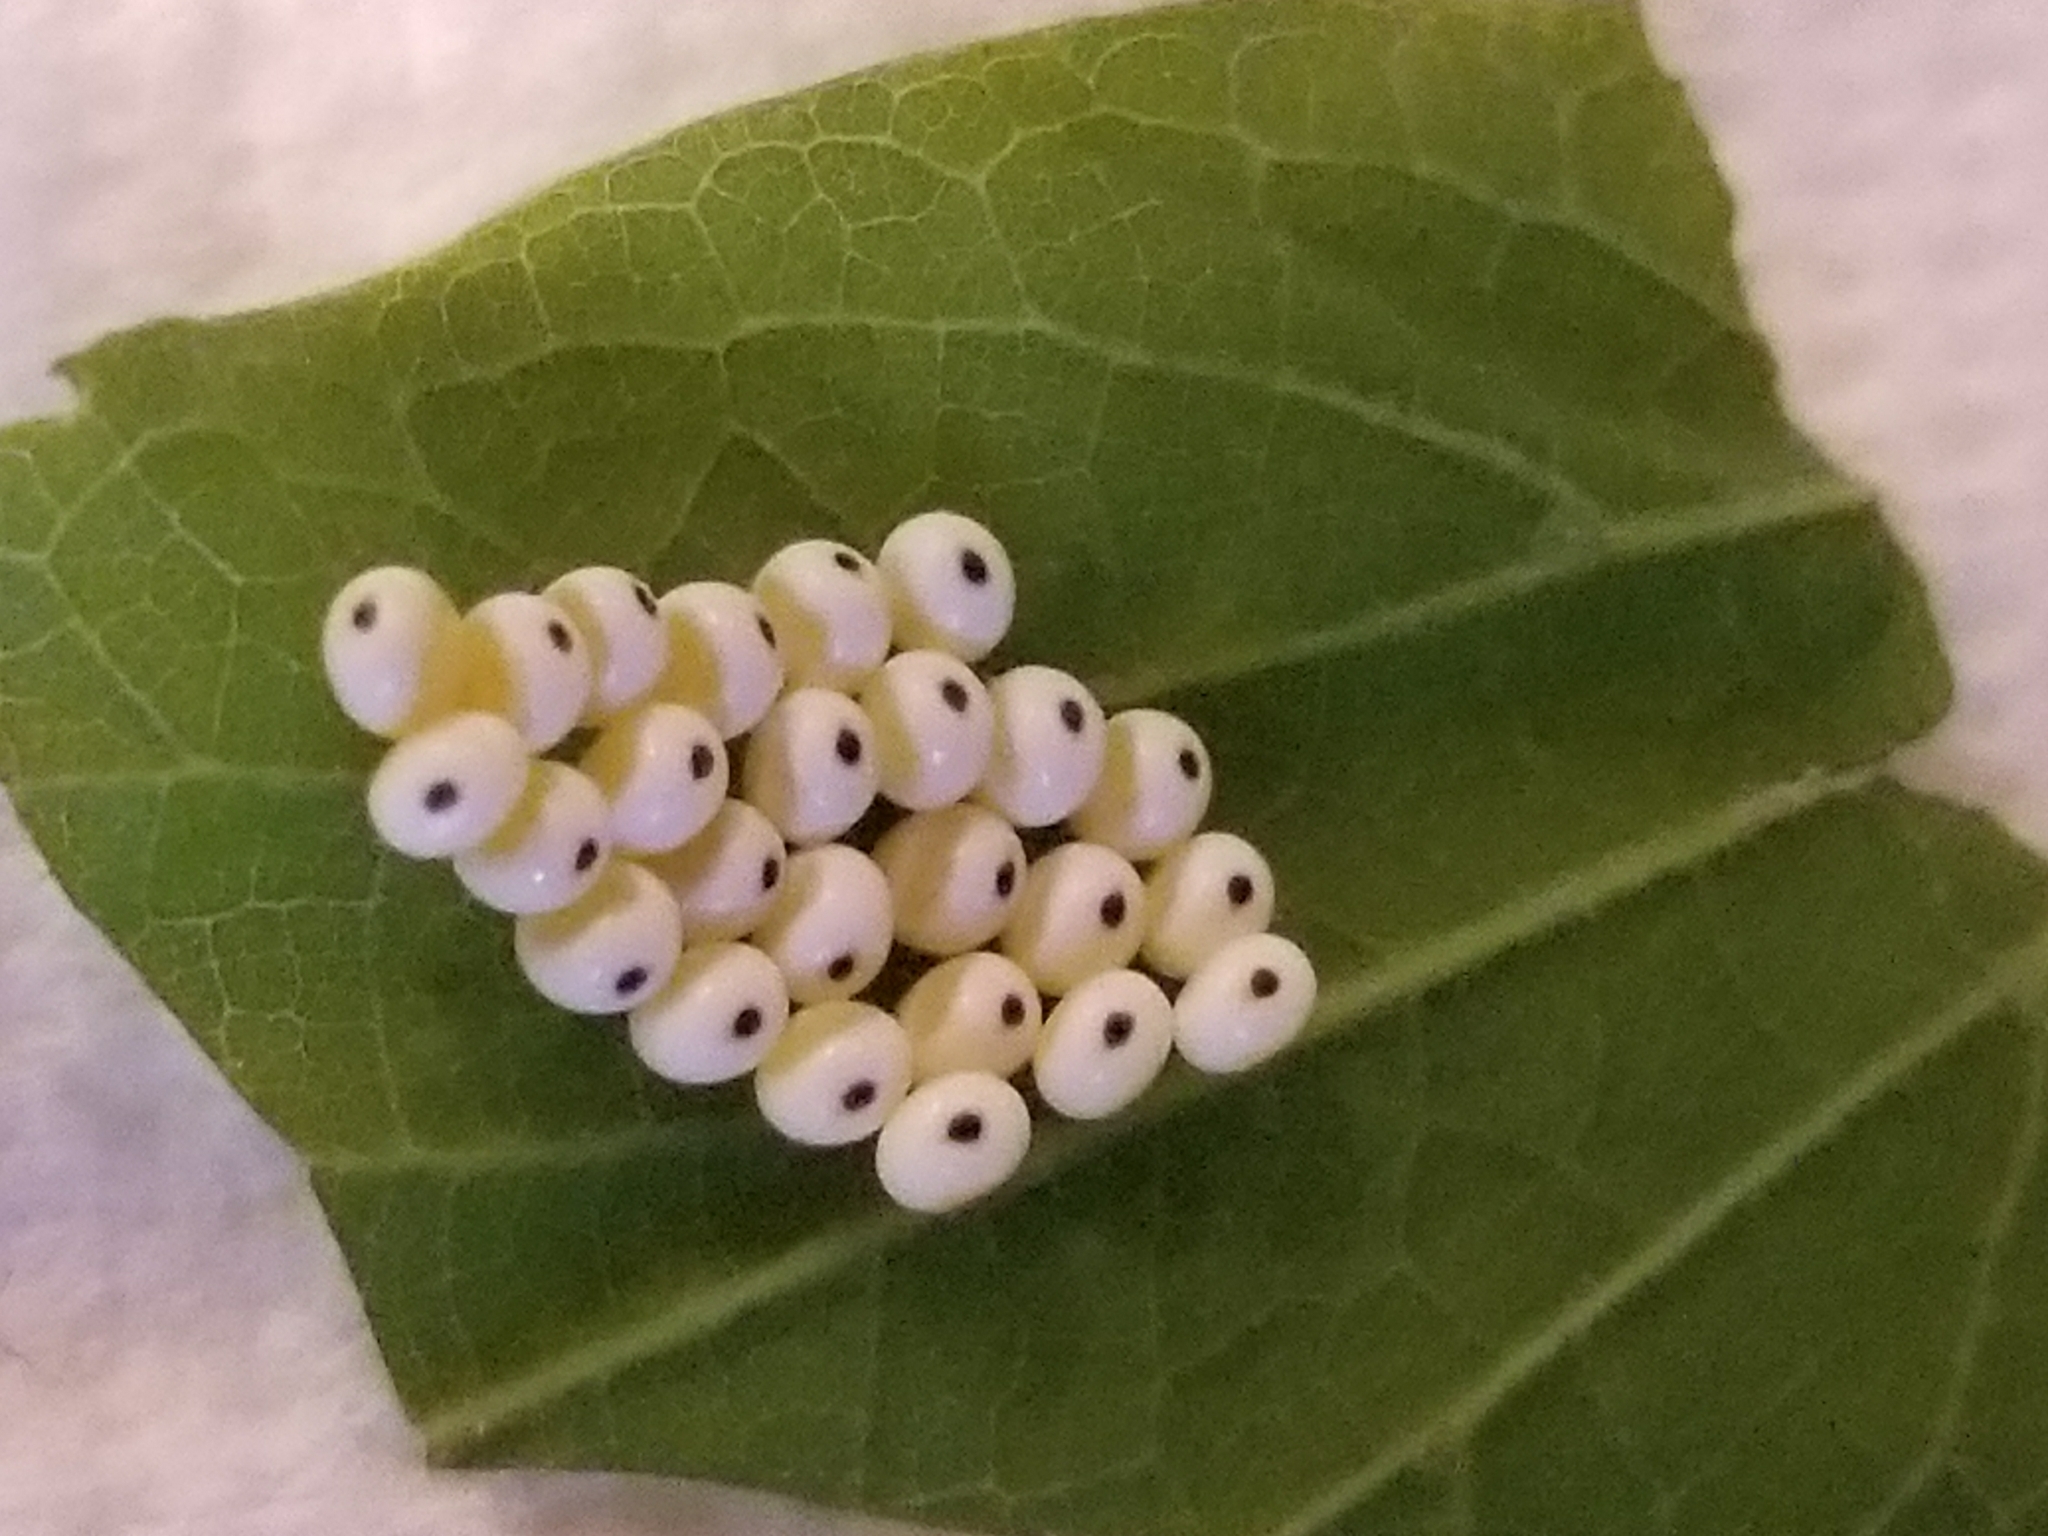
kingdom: Animalia
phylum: Arthropoda
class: Insecta
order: Lepidoptera
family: Saturniidae
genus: Automeris
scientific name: Automeris io
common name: Io moth
